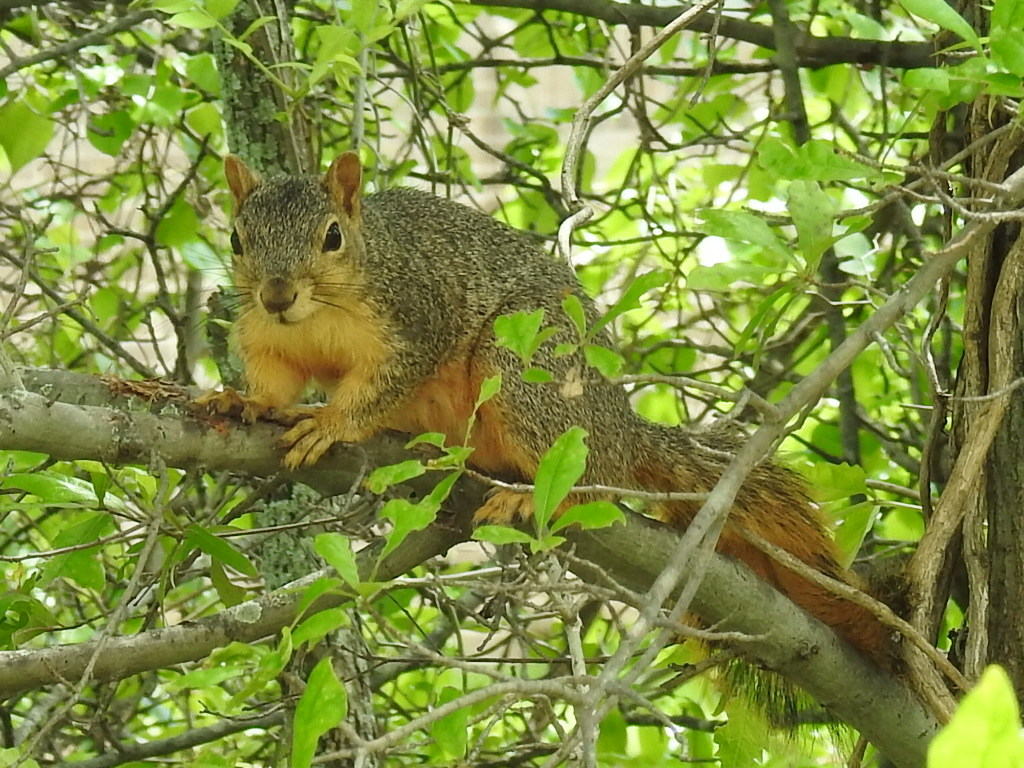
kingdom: Animalia
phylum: Chordata
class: Mammalia
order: Rodentia
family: Sciuridae
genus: Sciurus
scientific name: Sciurus niger
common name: Fox squirrel
